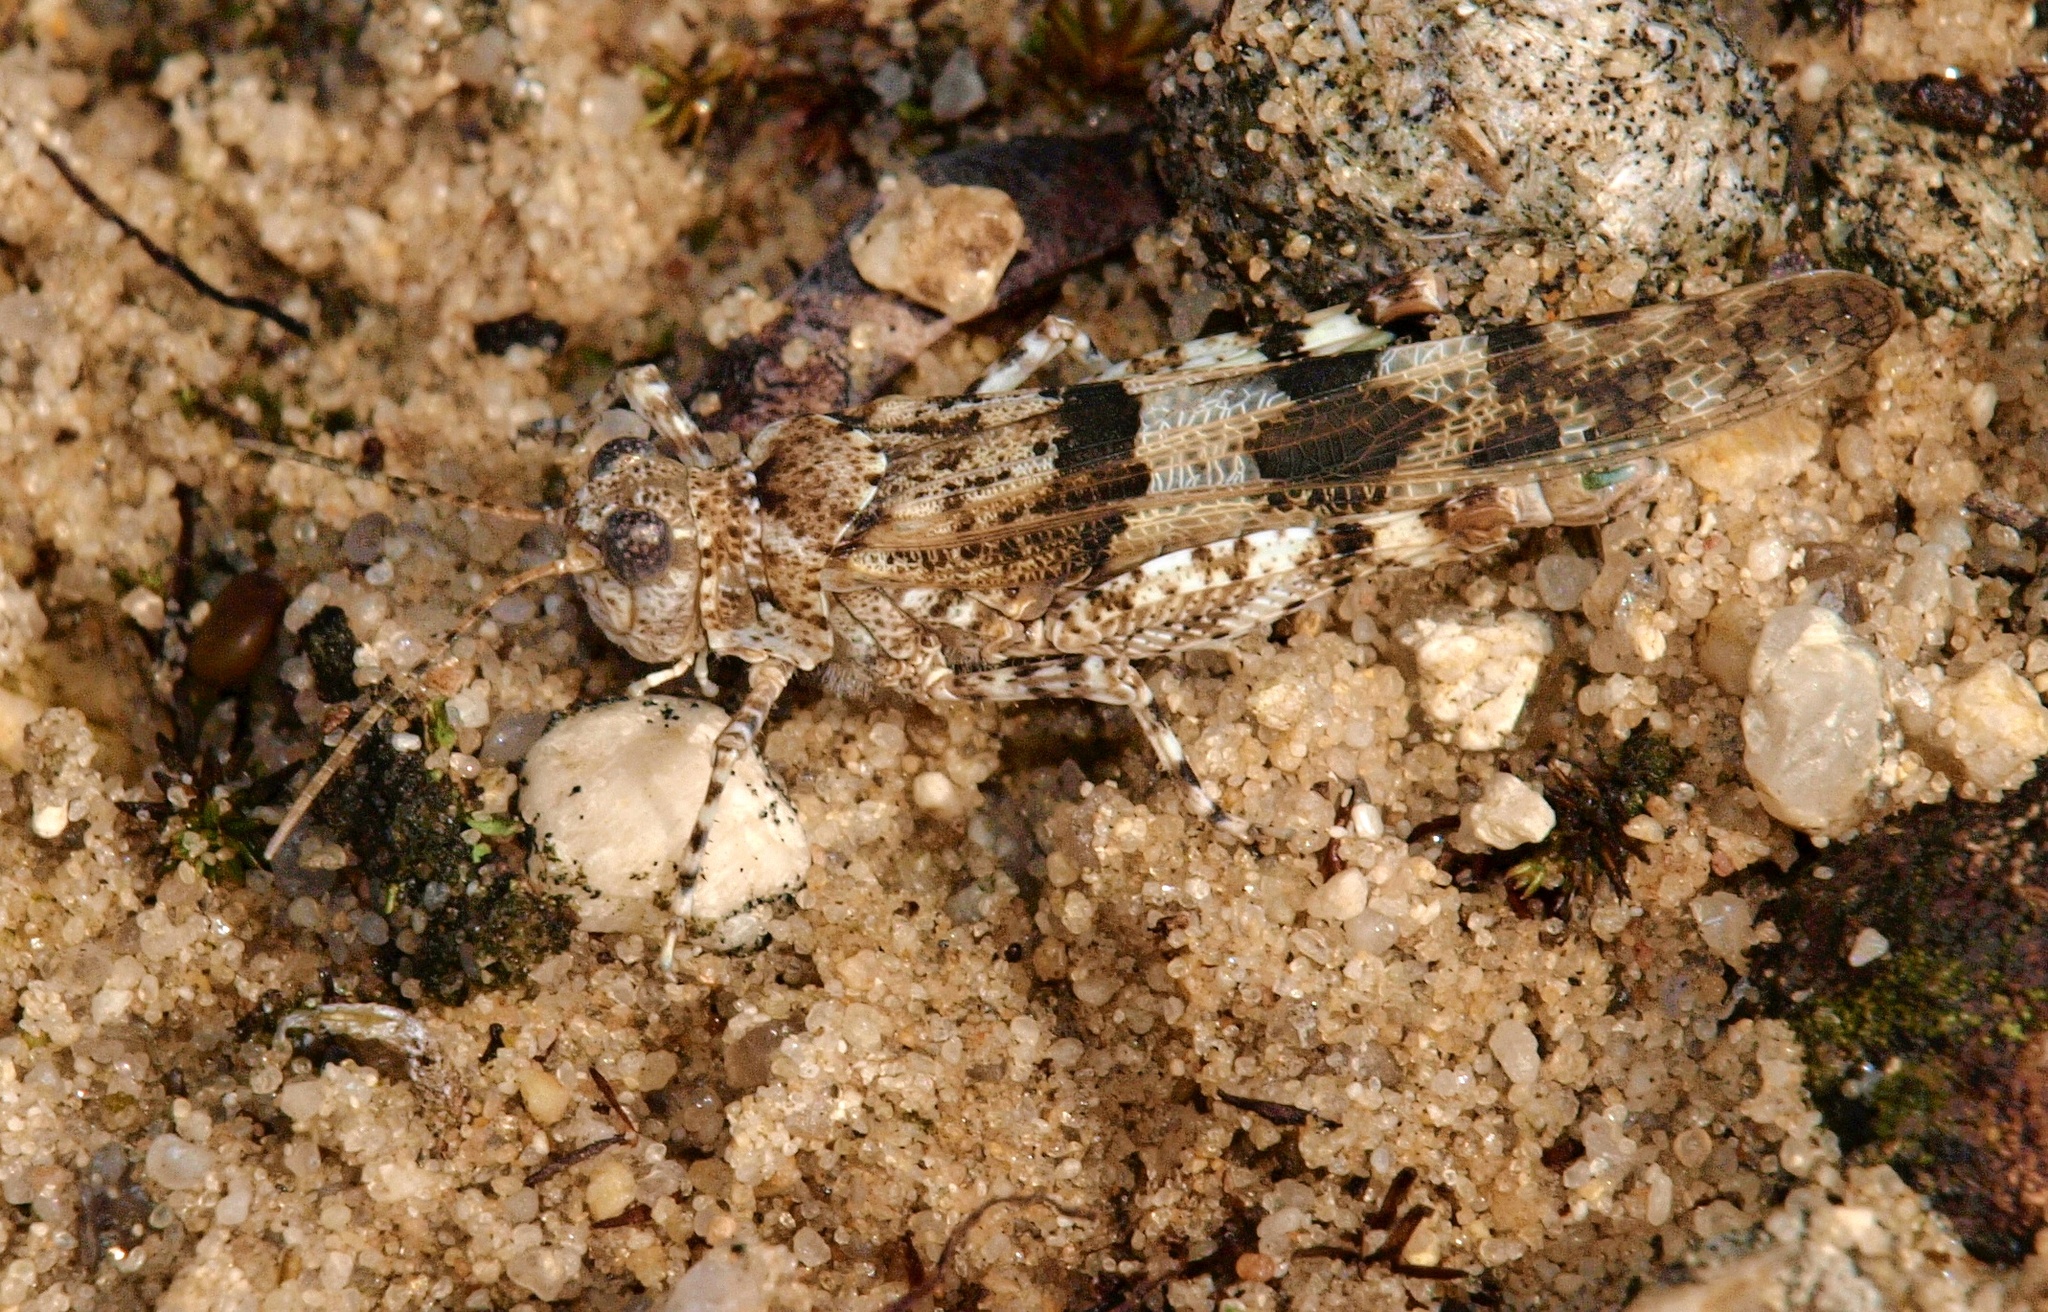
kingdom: Animalia
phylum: Arthropoda
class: Insecta
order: Orthoptera
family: Acrididae
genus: Sphingonotus
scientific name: Sphingonotus caerulans
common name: Blue-winged locust
